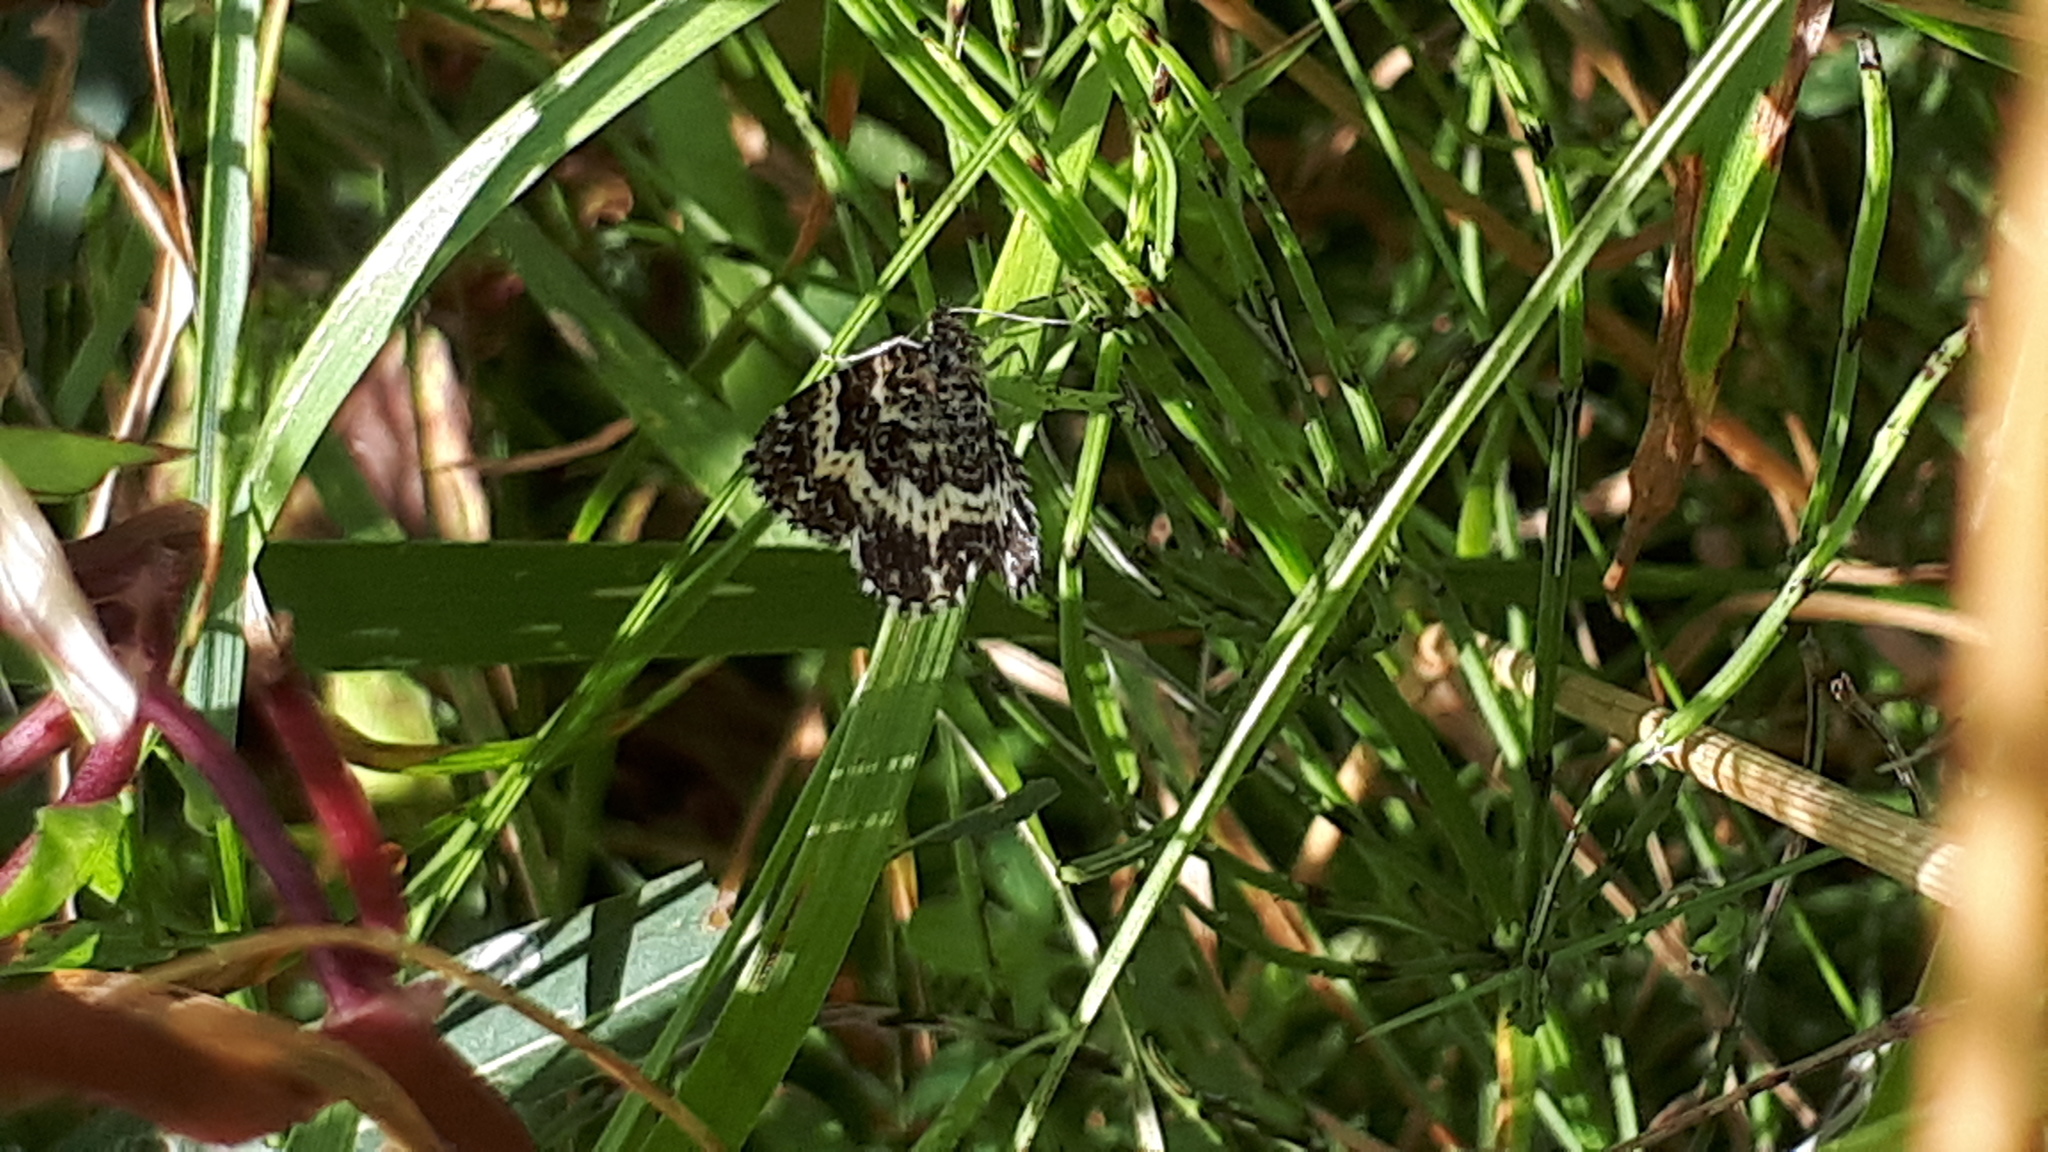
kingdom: Animalia
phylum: Arthropoda
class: Insecta
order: Lepidoptera
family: Geometridae
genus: Epirrhoe
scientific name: Epirrhoe tristata
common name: Small argent & sable
